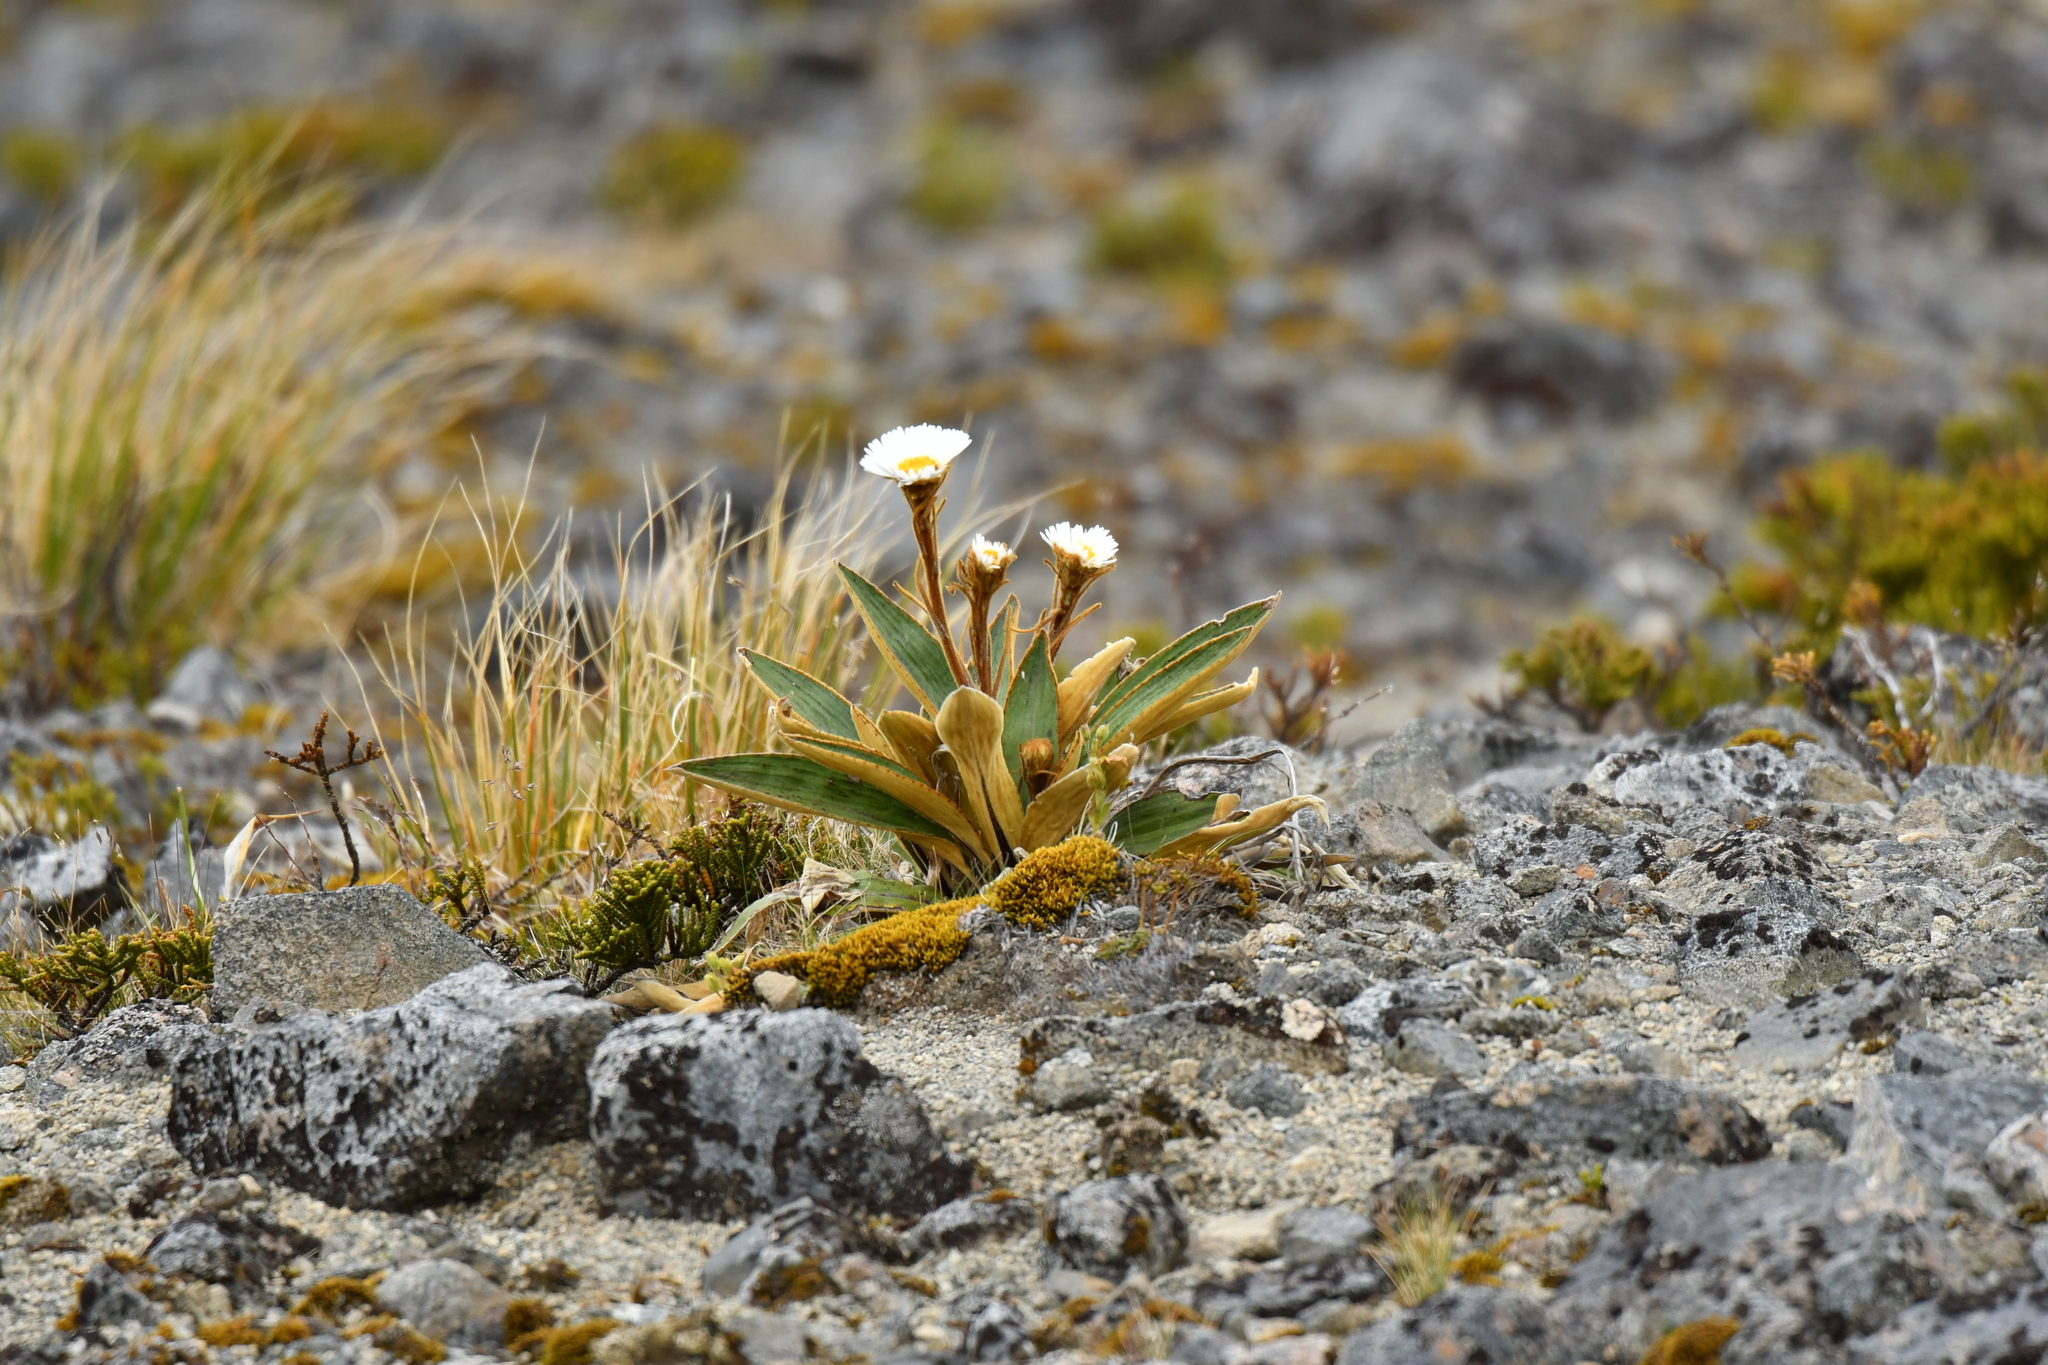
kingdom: Plantae
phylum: Tracheophyta
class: Magnoliopsida
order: Asterales
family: Asteraceae
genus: Celmisia
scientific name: Celmisia traversii
